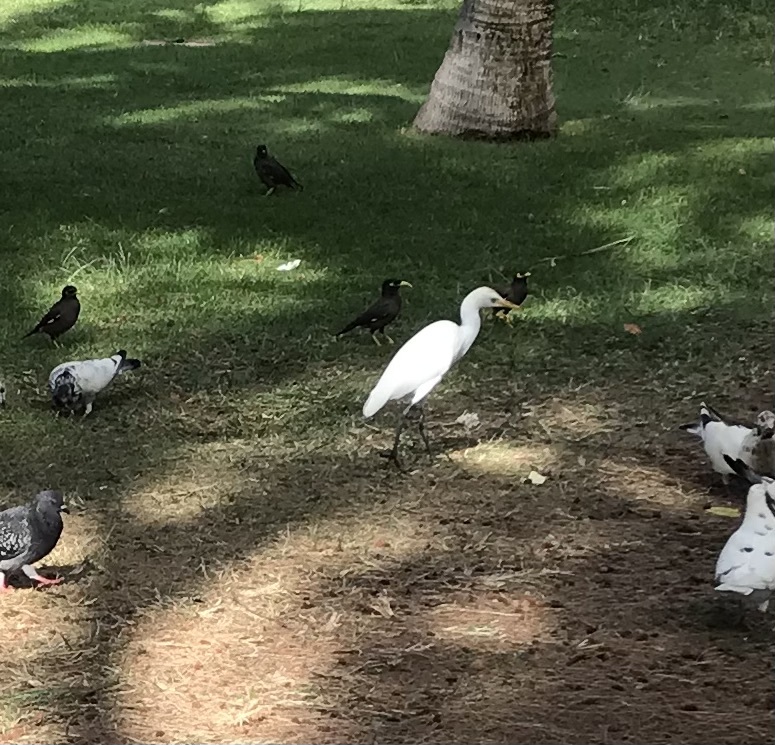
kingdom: Animalia
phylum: Chordata
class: Aves
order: Pelecaniformes
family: Ardeidae
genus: Bubulcus
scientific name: Bubulcus ibis
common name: Cattle egret
